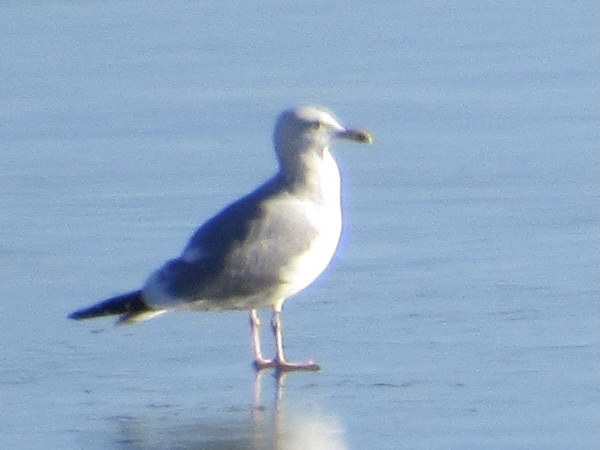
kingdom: Animalia
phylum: Chordata
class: Aves
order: Charadriiformes
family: Laridae
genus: Larus
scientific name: Larus argentatus
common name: Herring gull
